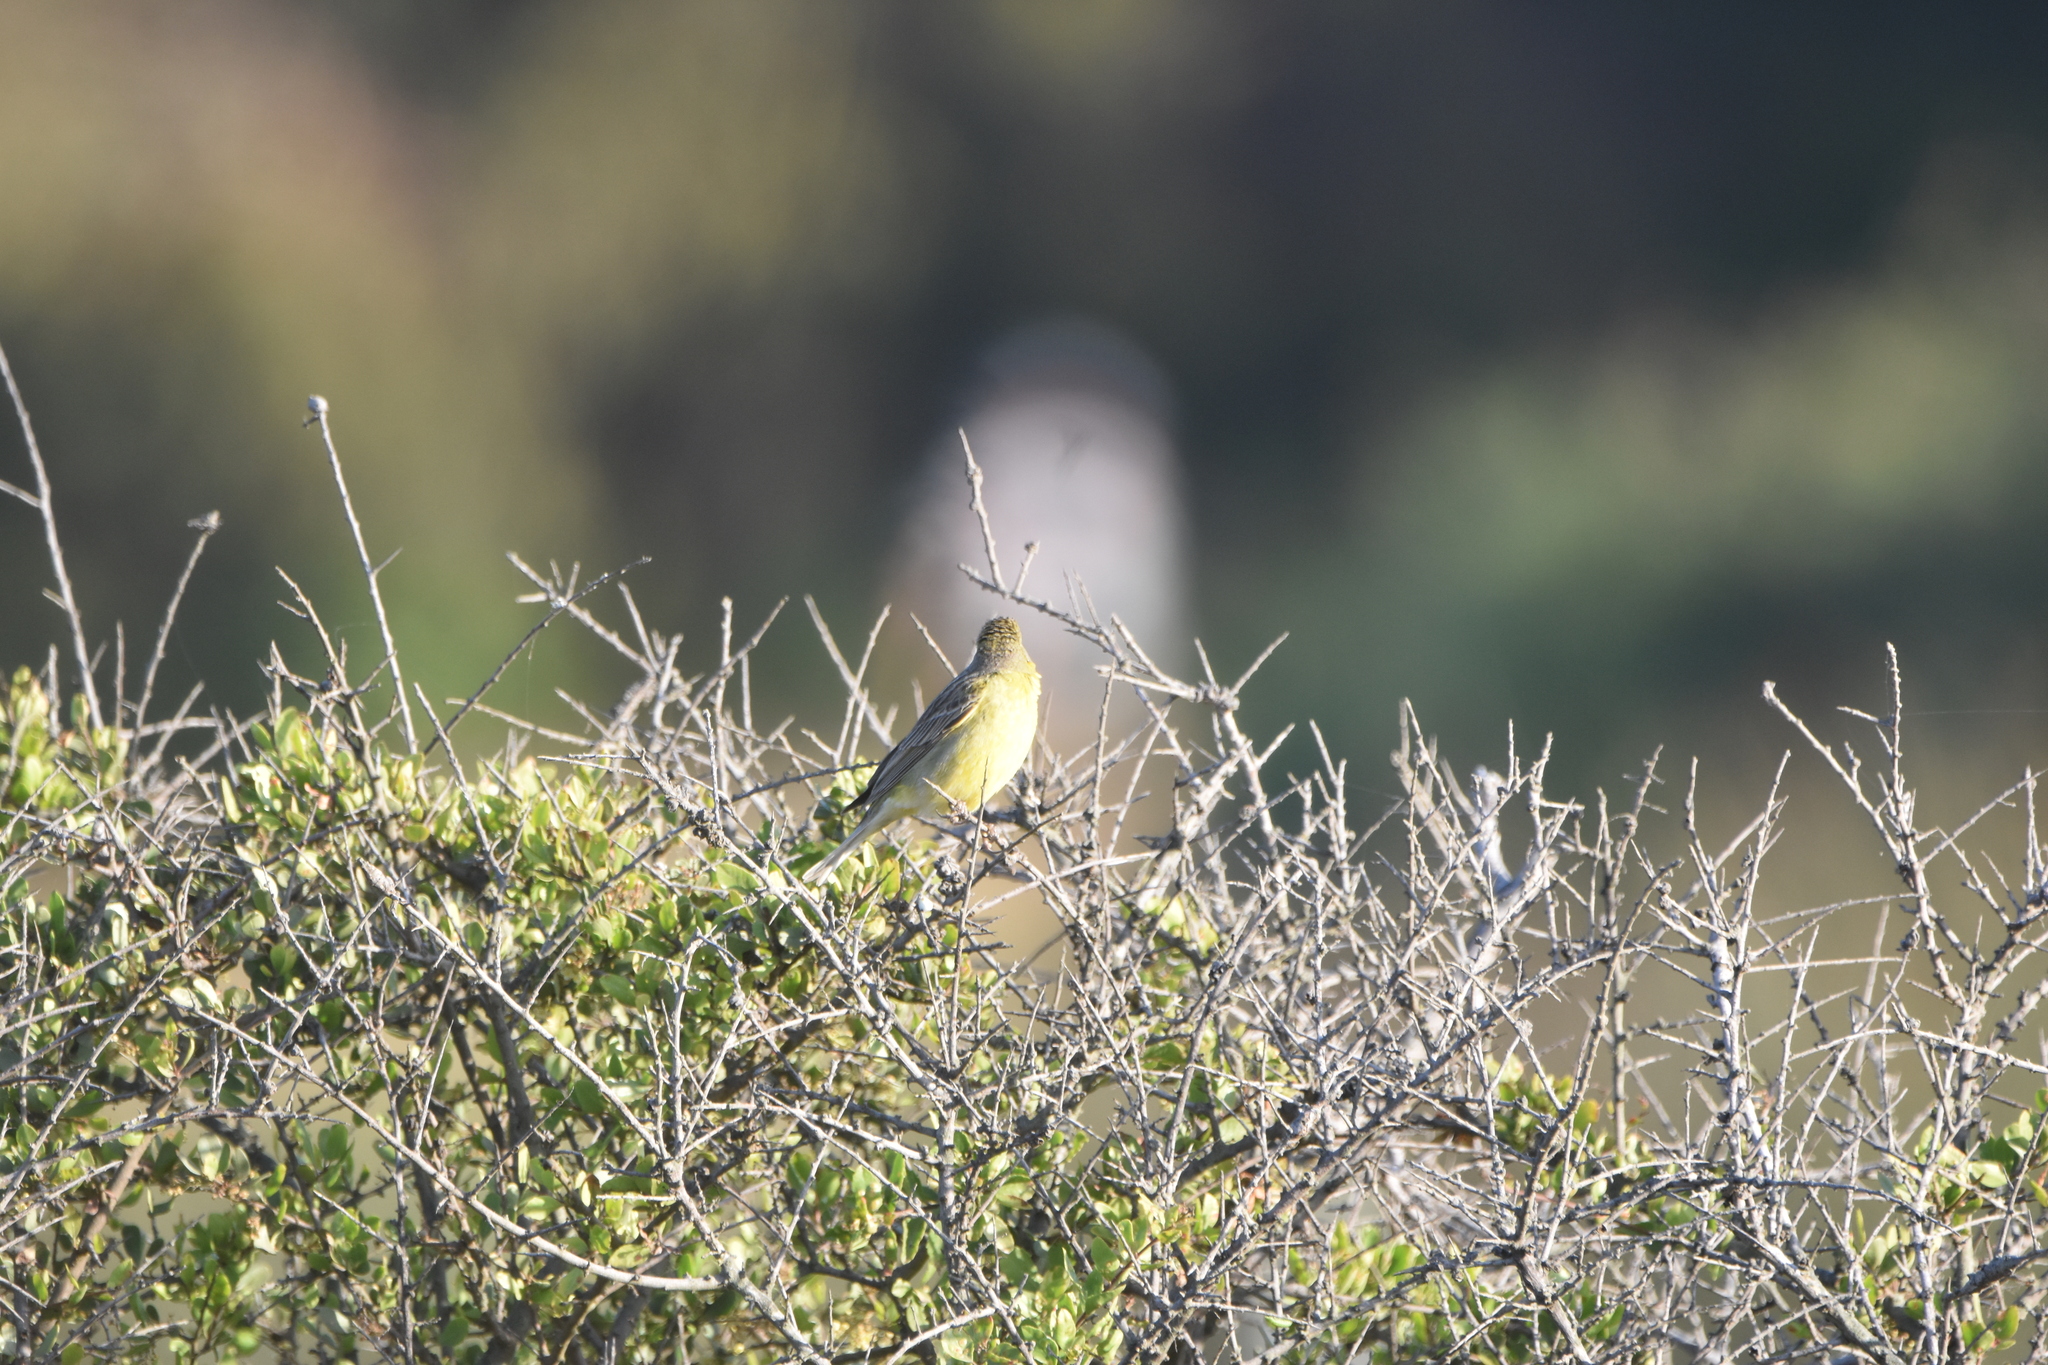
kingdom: Animalia
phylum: Chordata
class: Aves
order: Passeriformes
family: Thraupidae
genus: Sicalis
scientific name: Sicalis luteola
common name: Grassland yellow-finch
